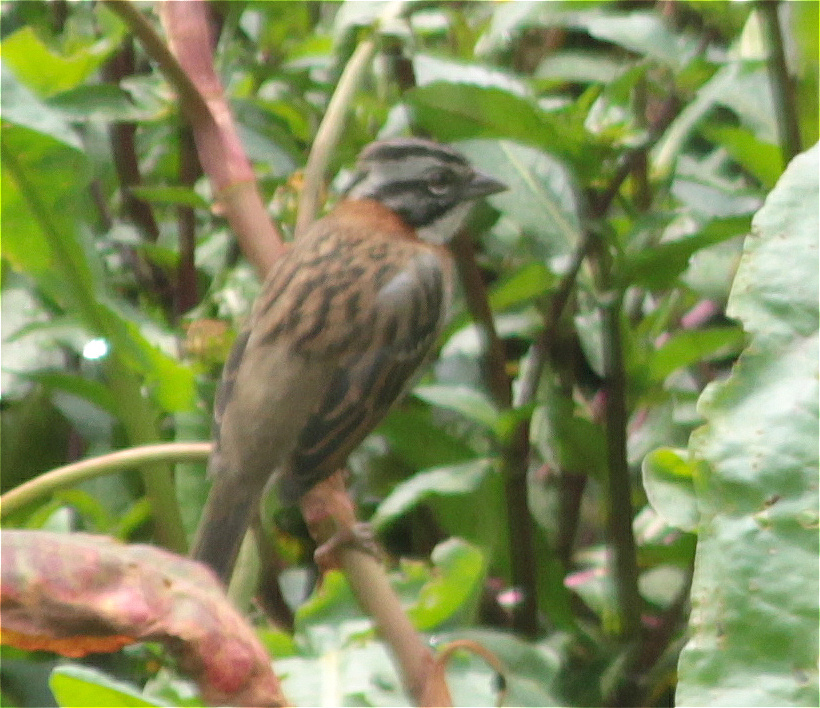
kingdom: Animalia
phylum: Chordata
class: Aves
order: Passeriformes
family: Passerellidae
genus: Zonotrichia
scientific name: Zonotrichia capensis
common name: Rufous-collared sparrow
